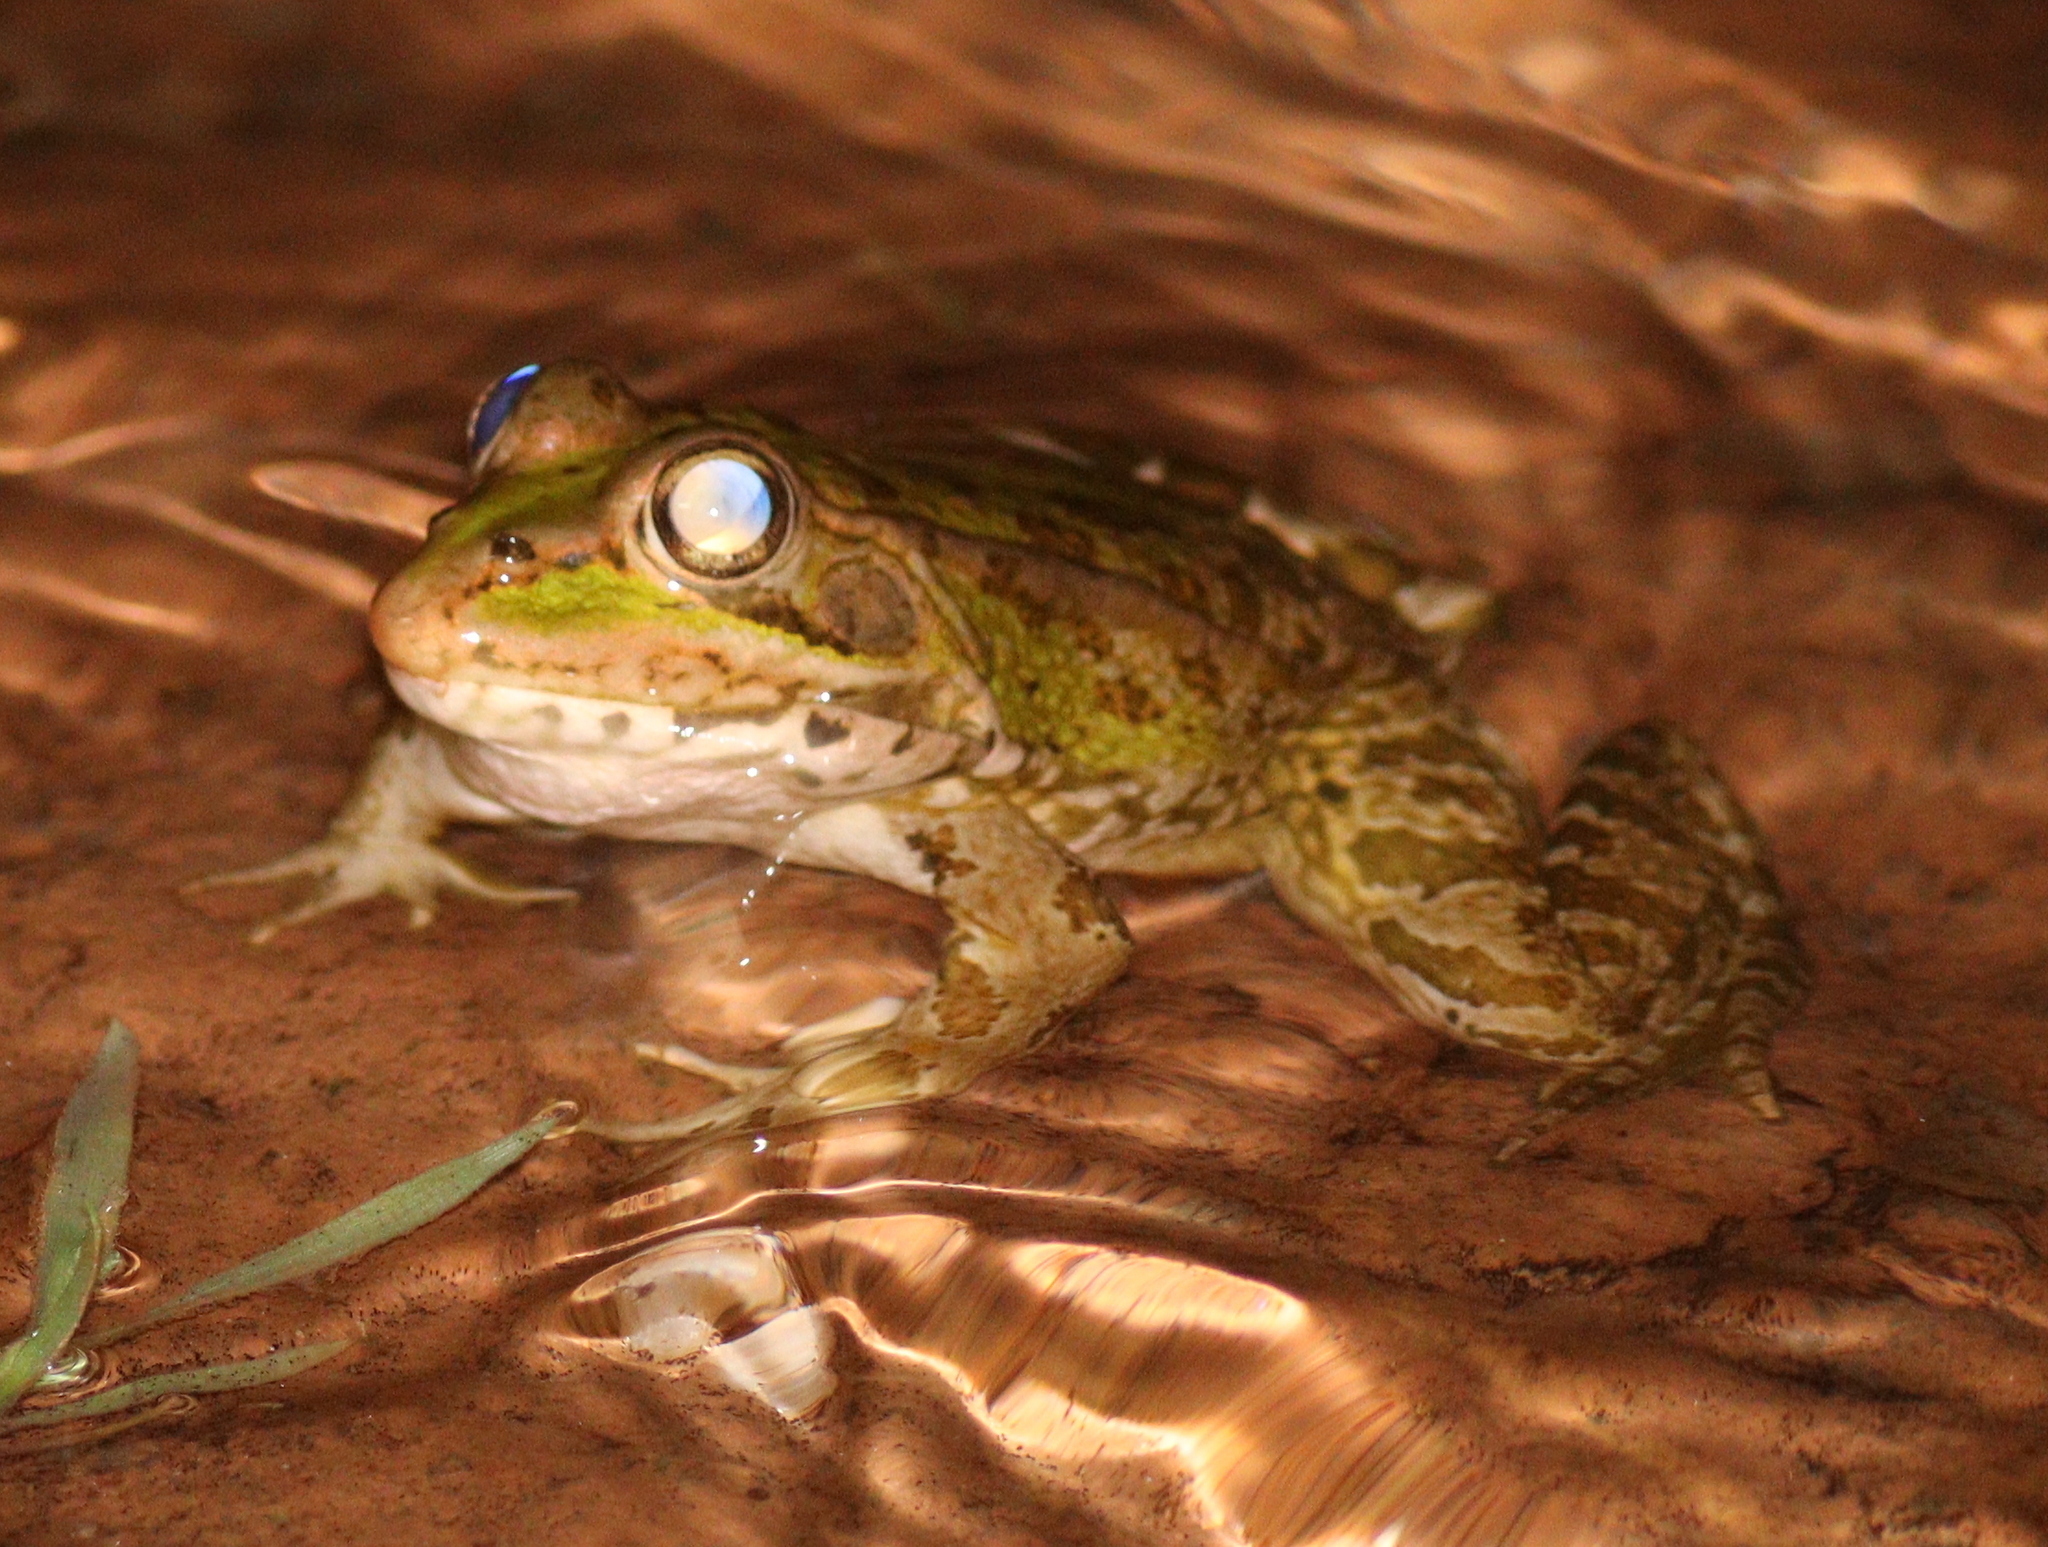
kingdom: Animalia
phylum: Chordata
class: Amphibia
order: Anura
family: Ranidae
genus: Pelophylax
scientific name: Pelophylax perezi
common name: Perez's frog
